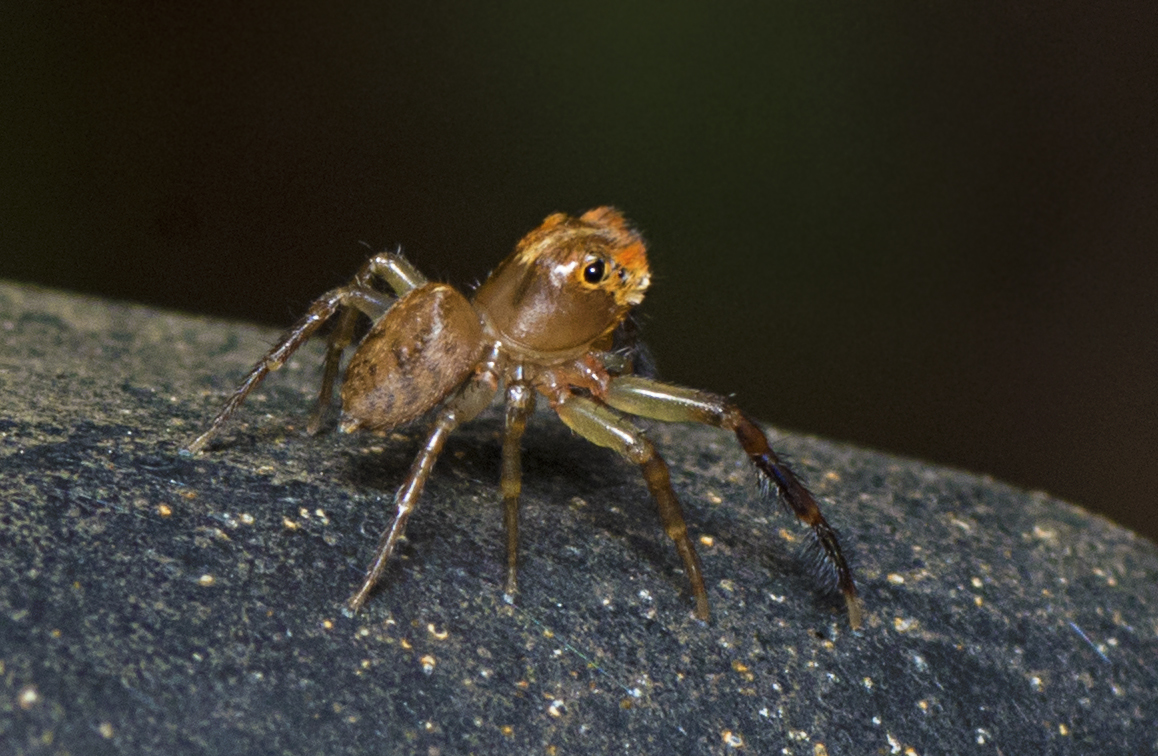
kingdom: Animalia
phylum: Arthropoda
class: Arachnida
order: Araneae
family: Salticidae
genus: Prostheclina
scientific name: Prostheclina bulburin
